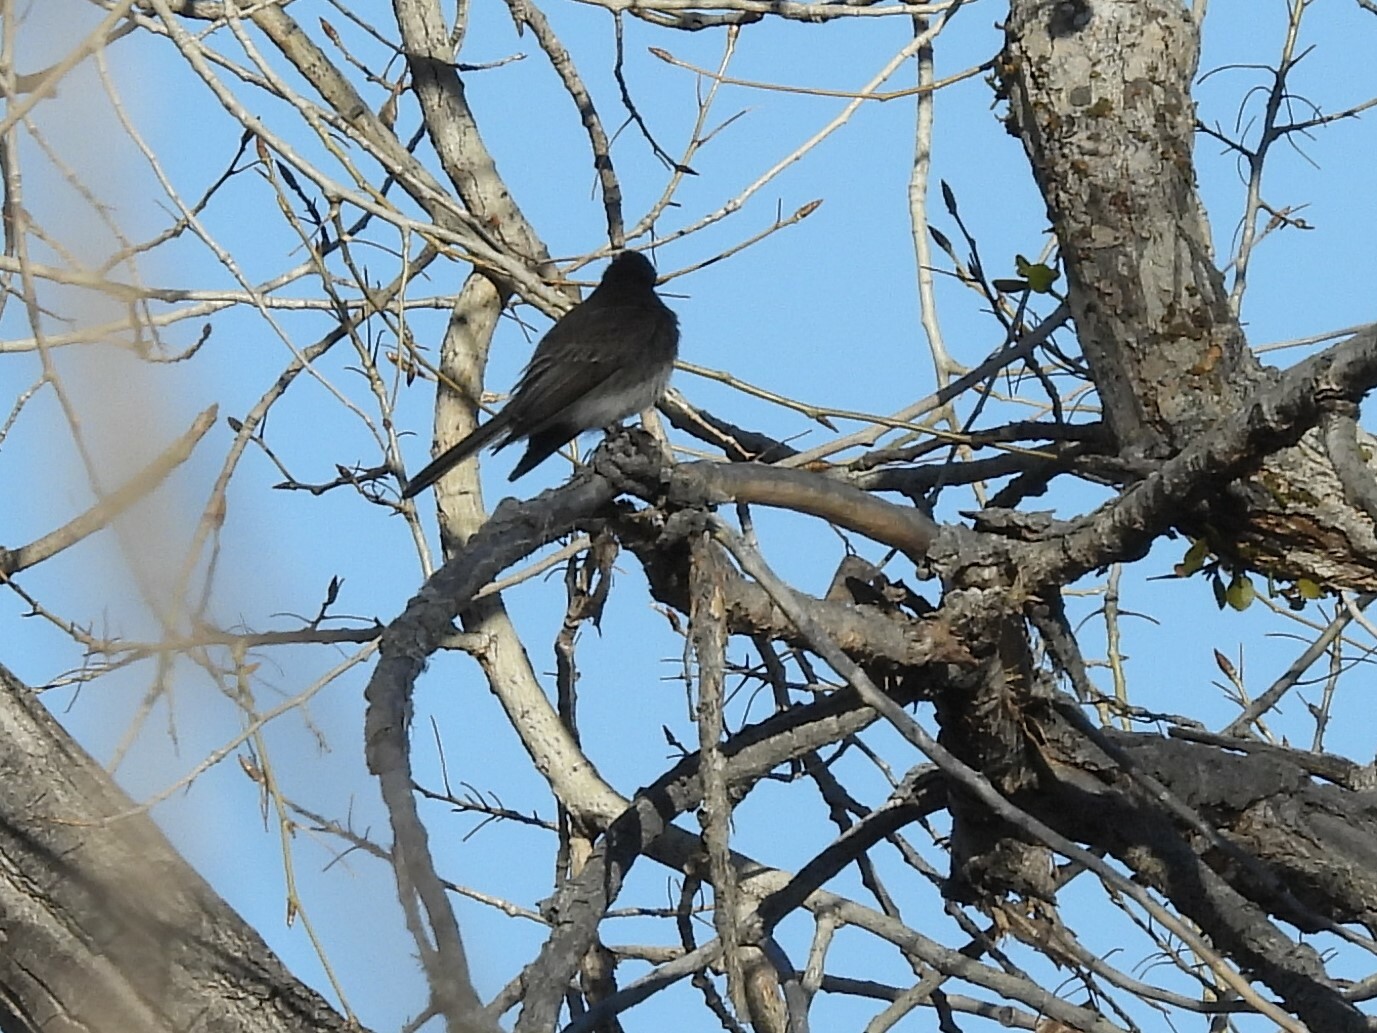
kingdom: Animalia
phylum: Chordata
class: Aves
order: Passeriformes
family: Tyrannidae
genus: Sayornis
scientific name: Sayornis nigricans
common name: Black phoebe
